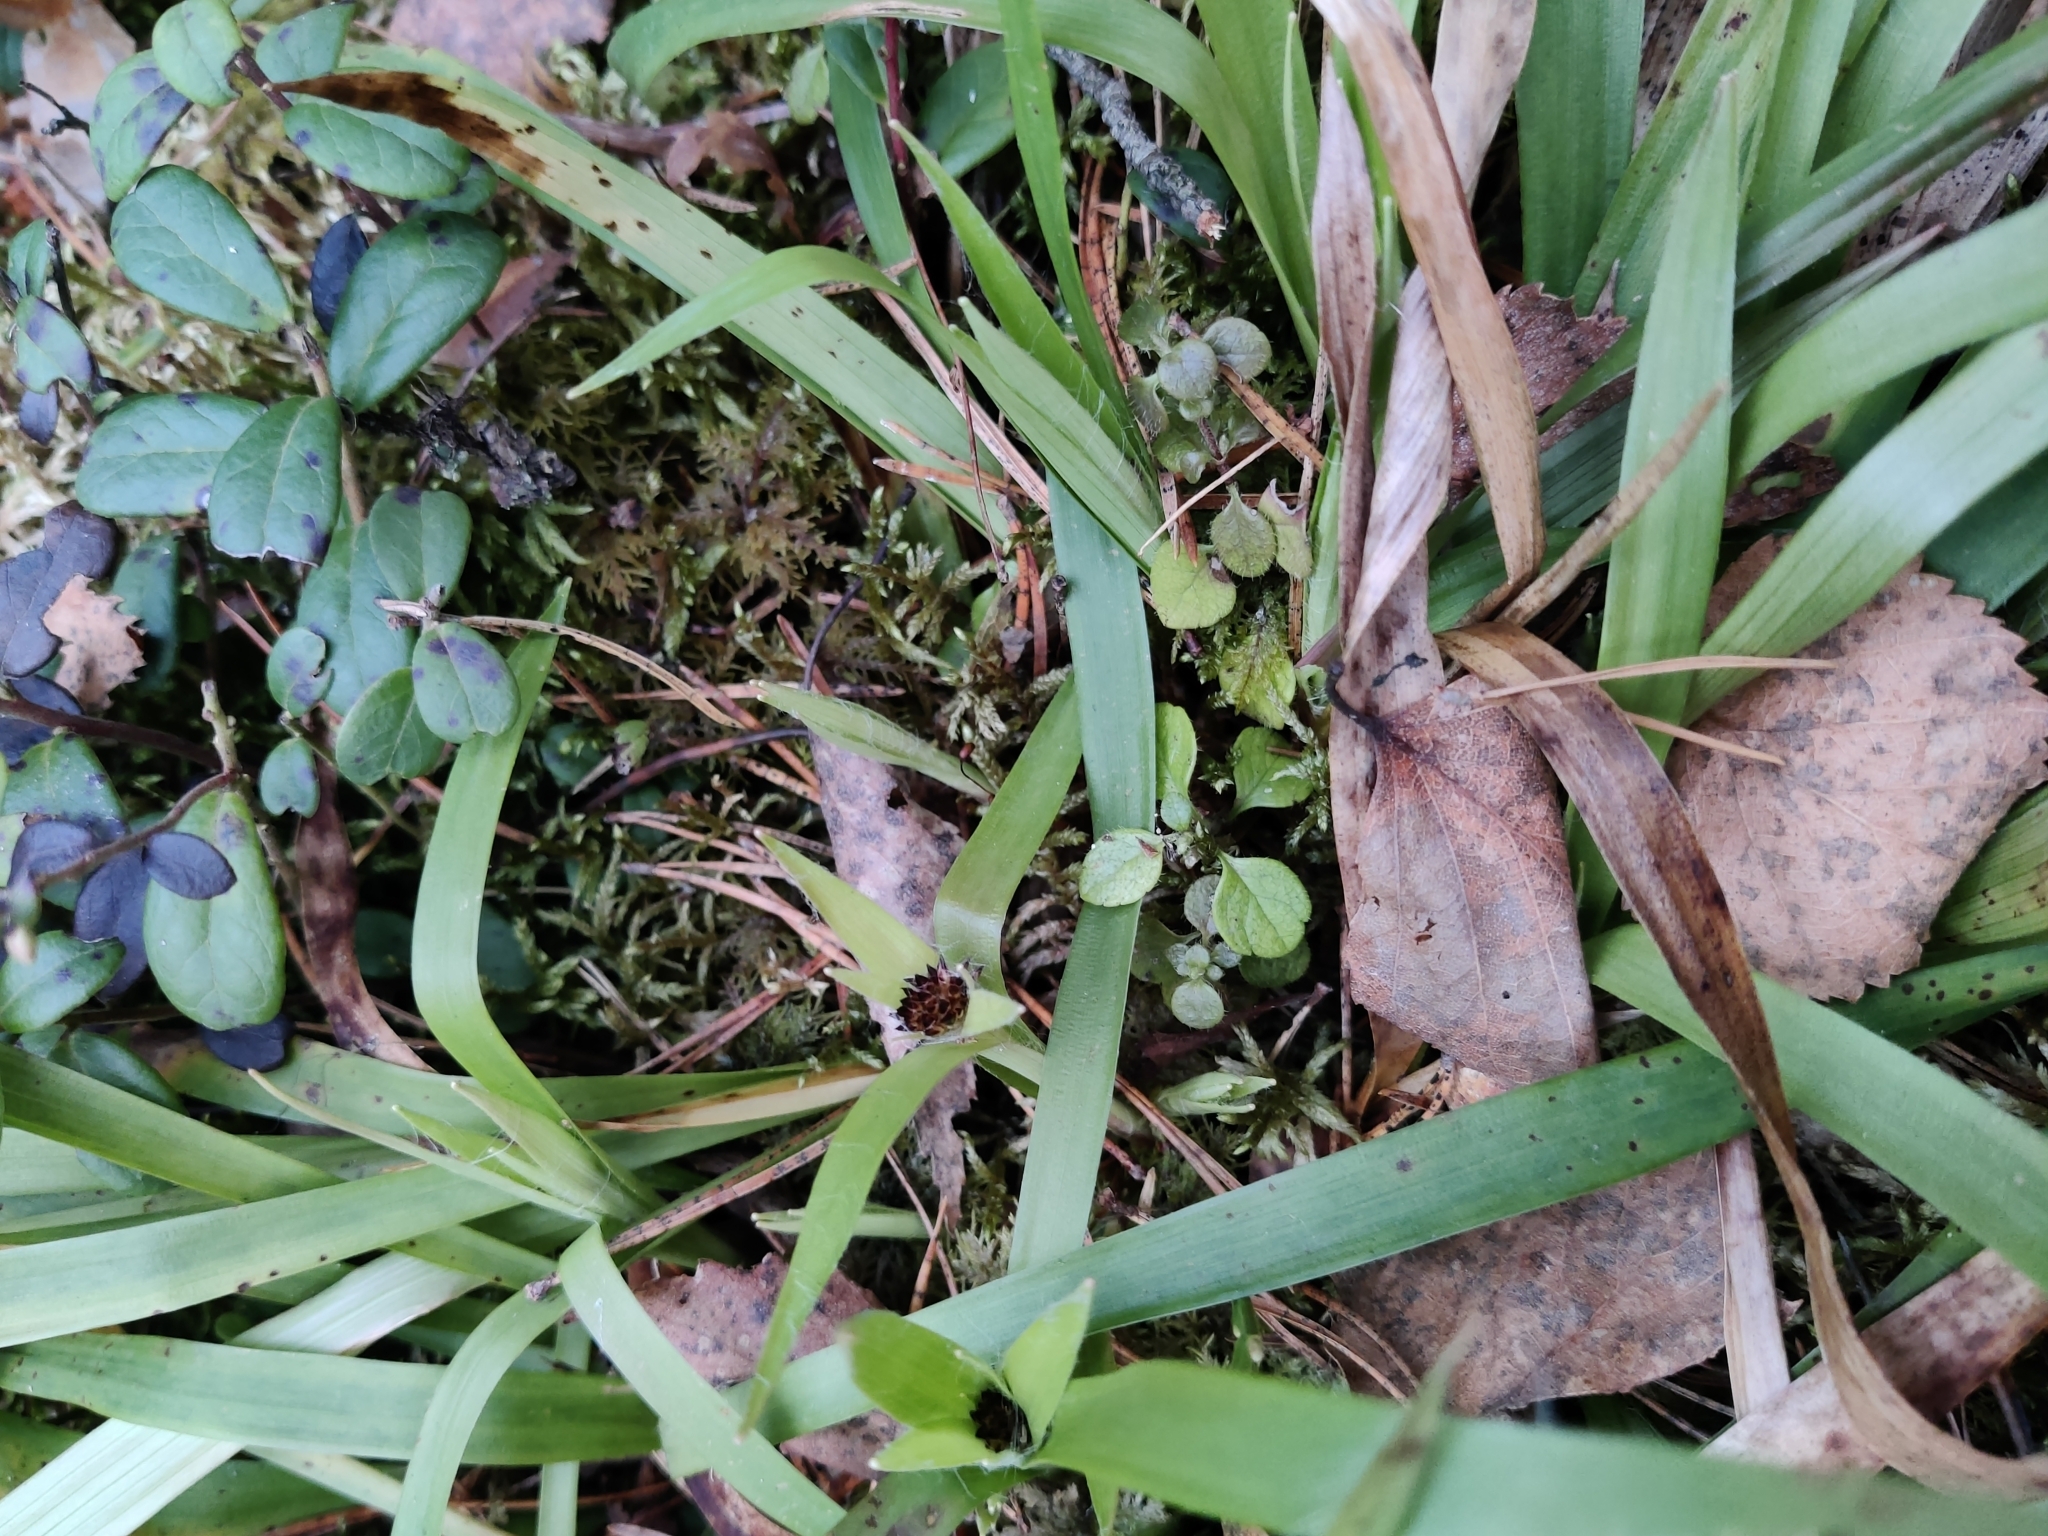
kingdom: Plantae
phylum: Tracheophyta
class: Liliopsida
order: Poales
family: Juncaceae
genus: Luzula
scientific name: Luzula pilosa
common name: Hairy wood-rush
